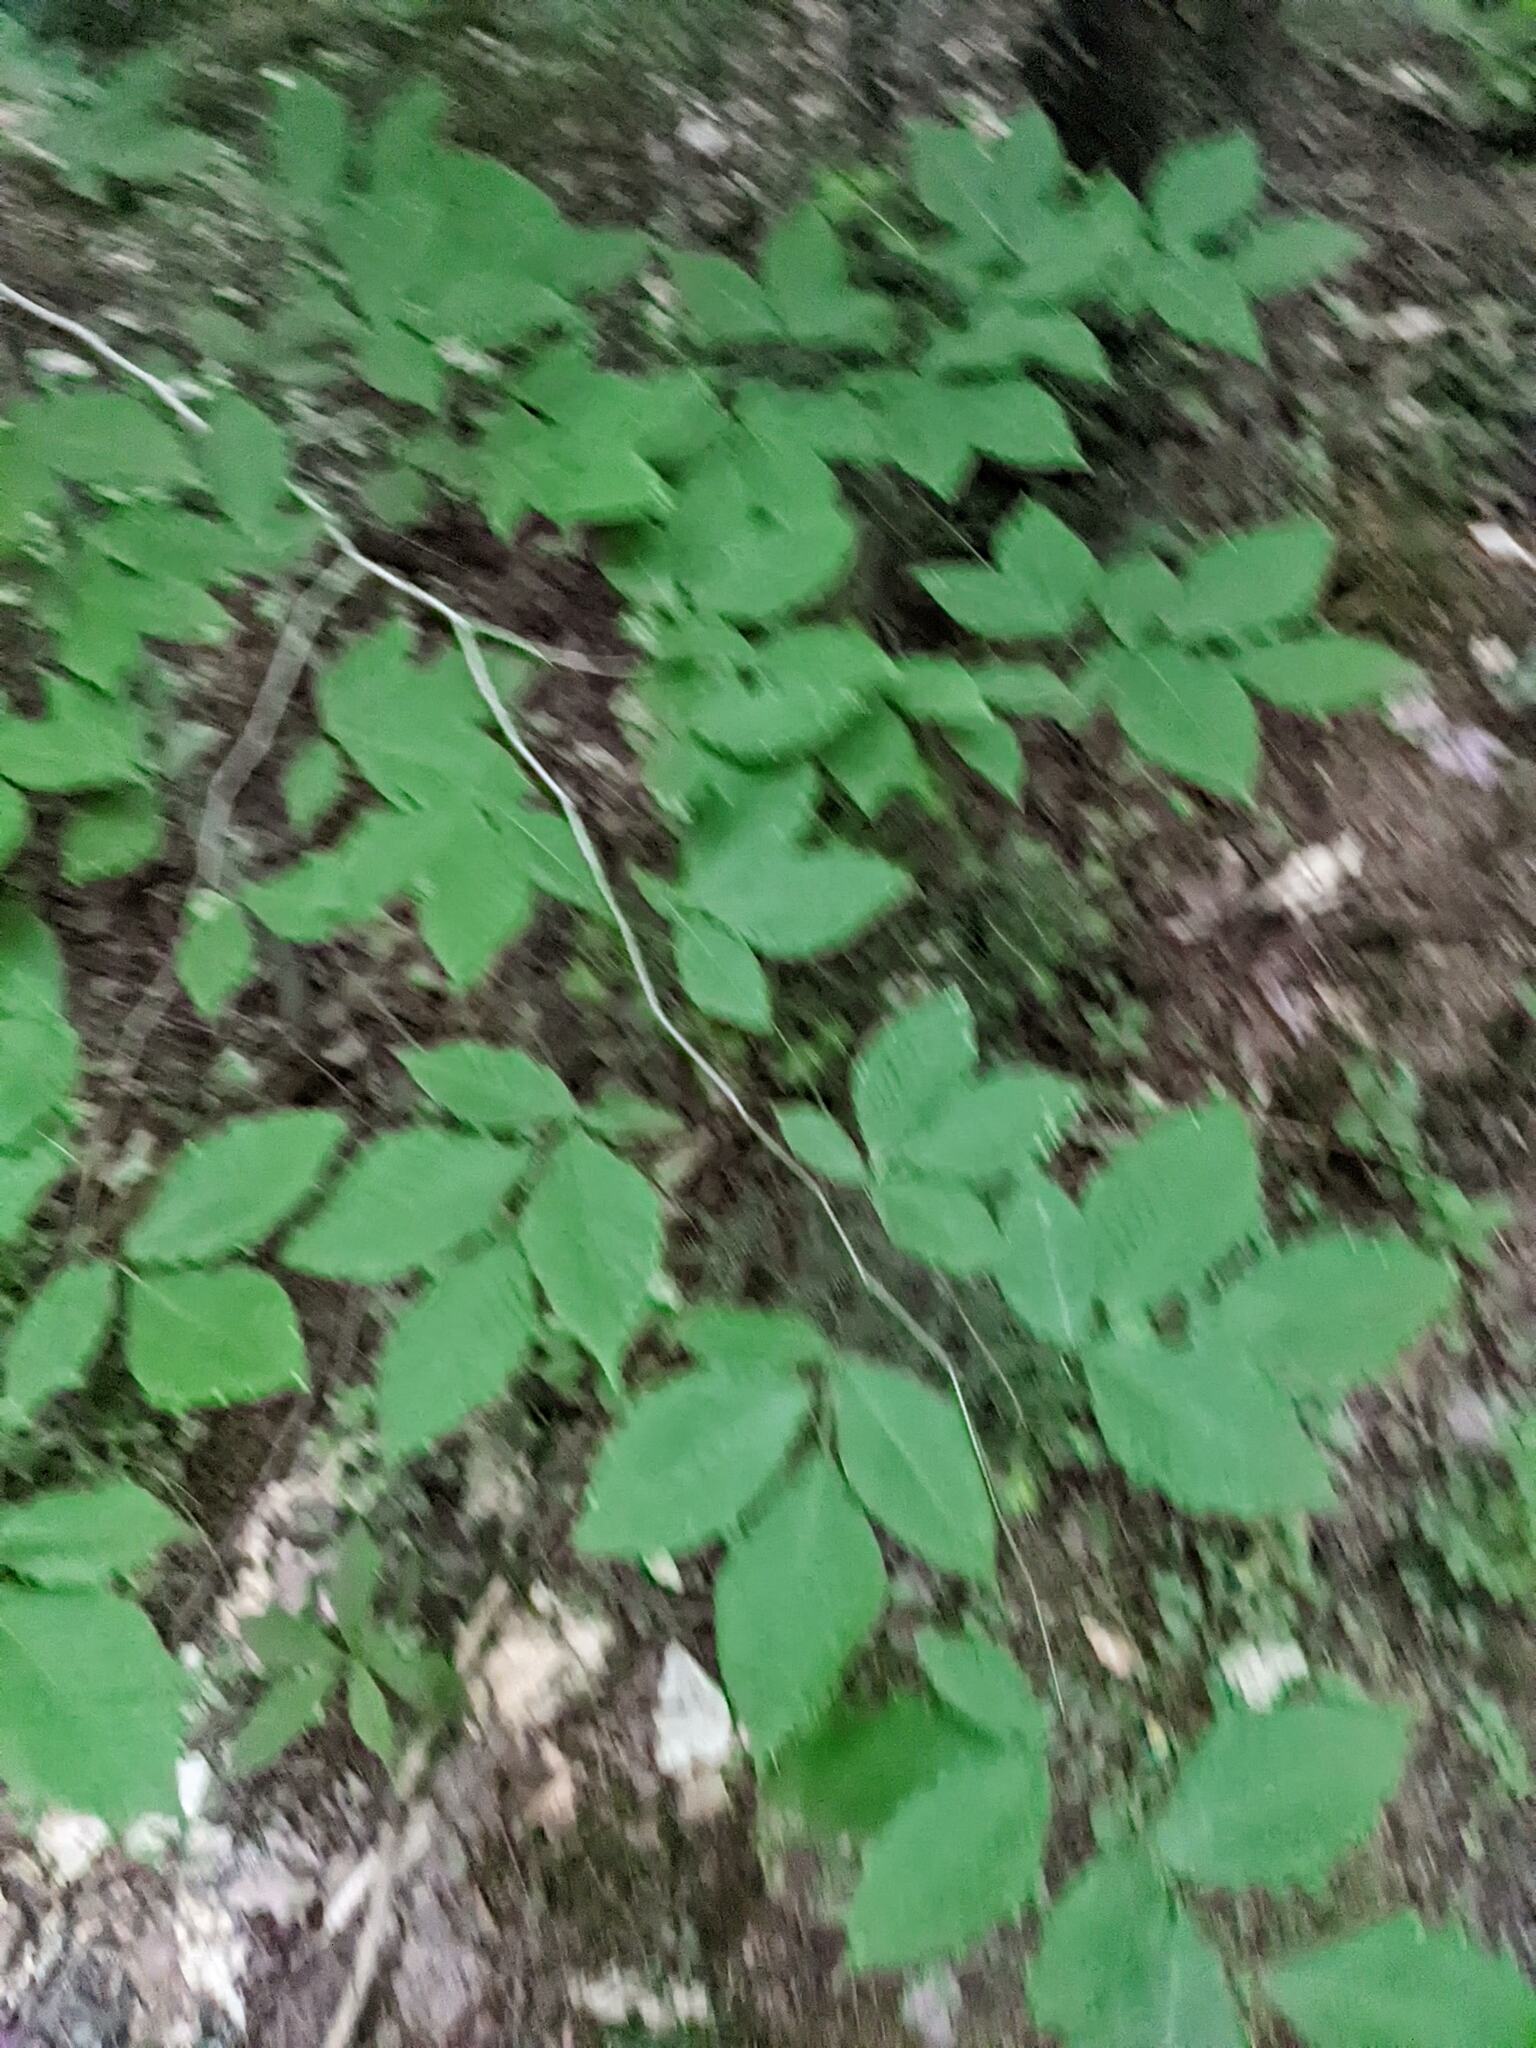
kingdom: Plantae
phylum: Tracheophyta
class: Magnoliopsida
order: Fagales
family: Fagaceae
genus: Fagus
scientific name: Fagus grandifolia
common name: American beech
